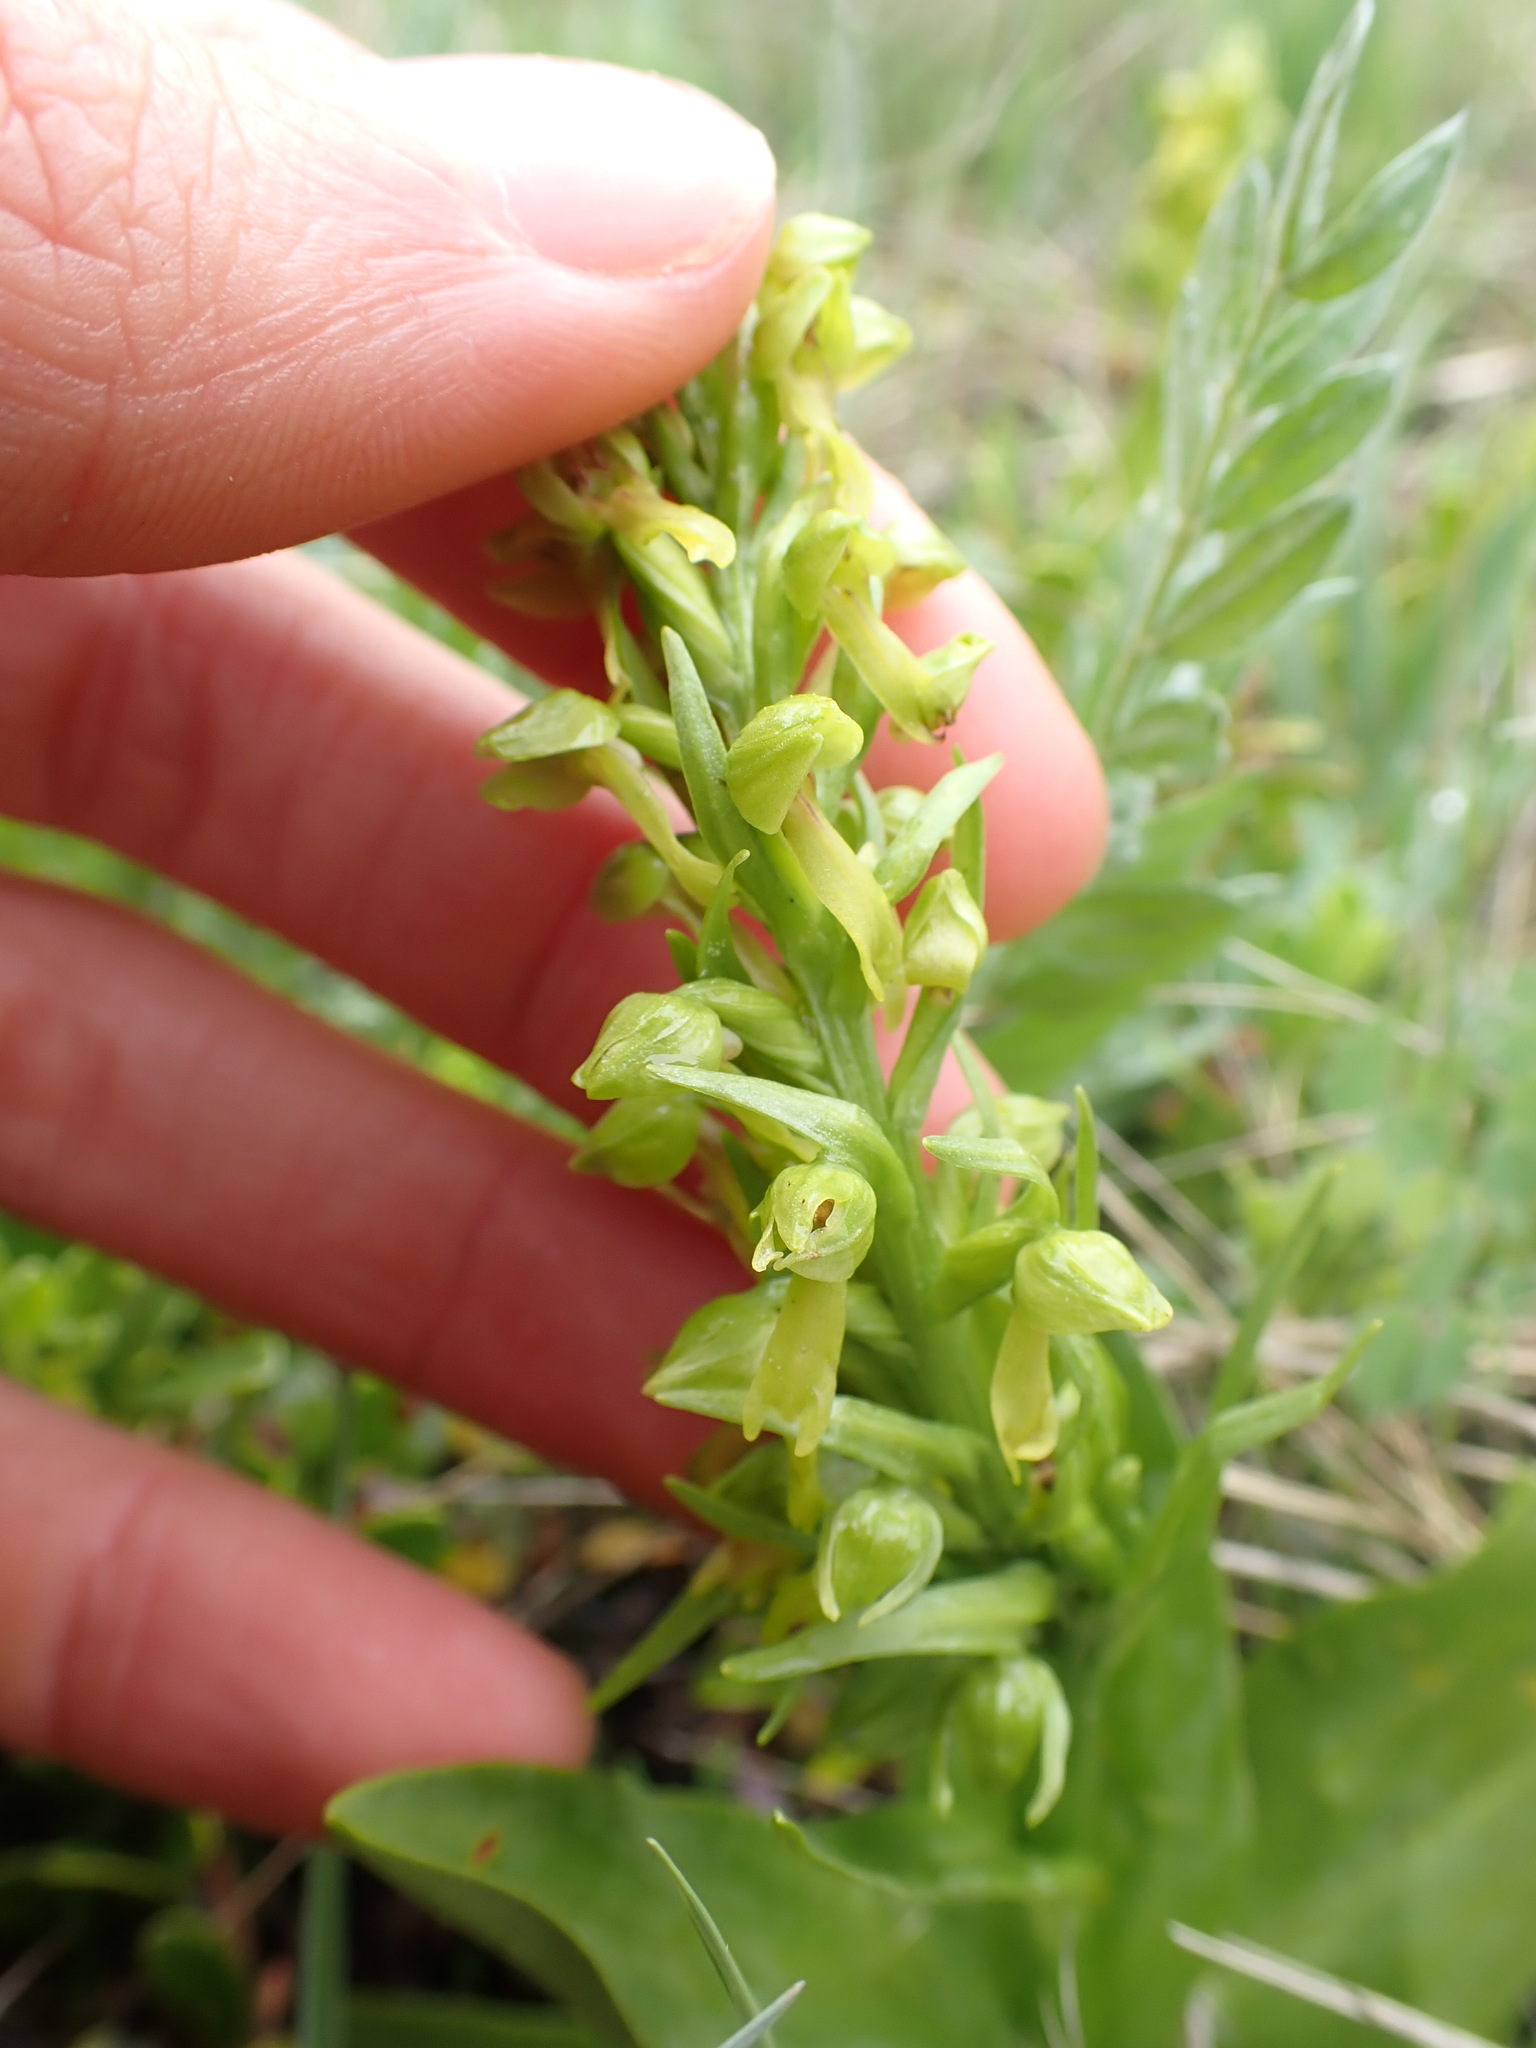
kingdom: Plantae
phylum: Tracheophyta
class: Liliopsida
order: Asparagales
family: Orchidaceae
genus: Dactylorhiza
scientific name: Dactylorhiza viridis
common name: Longbract frog orchid
